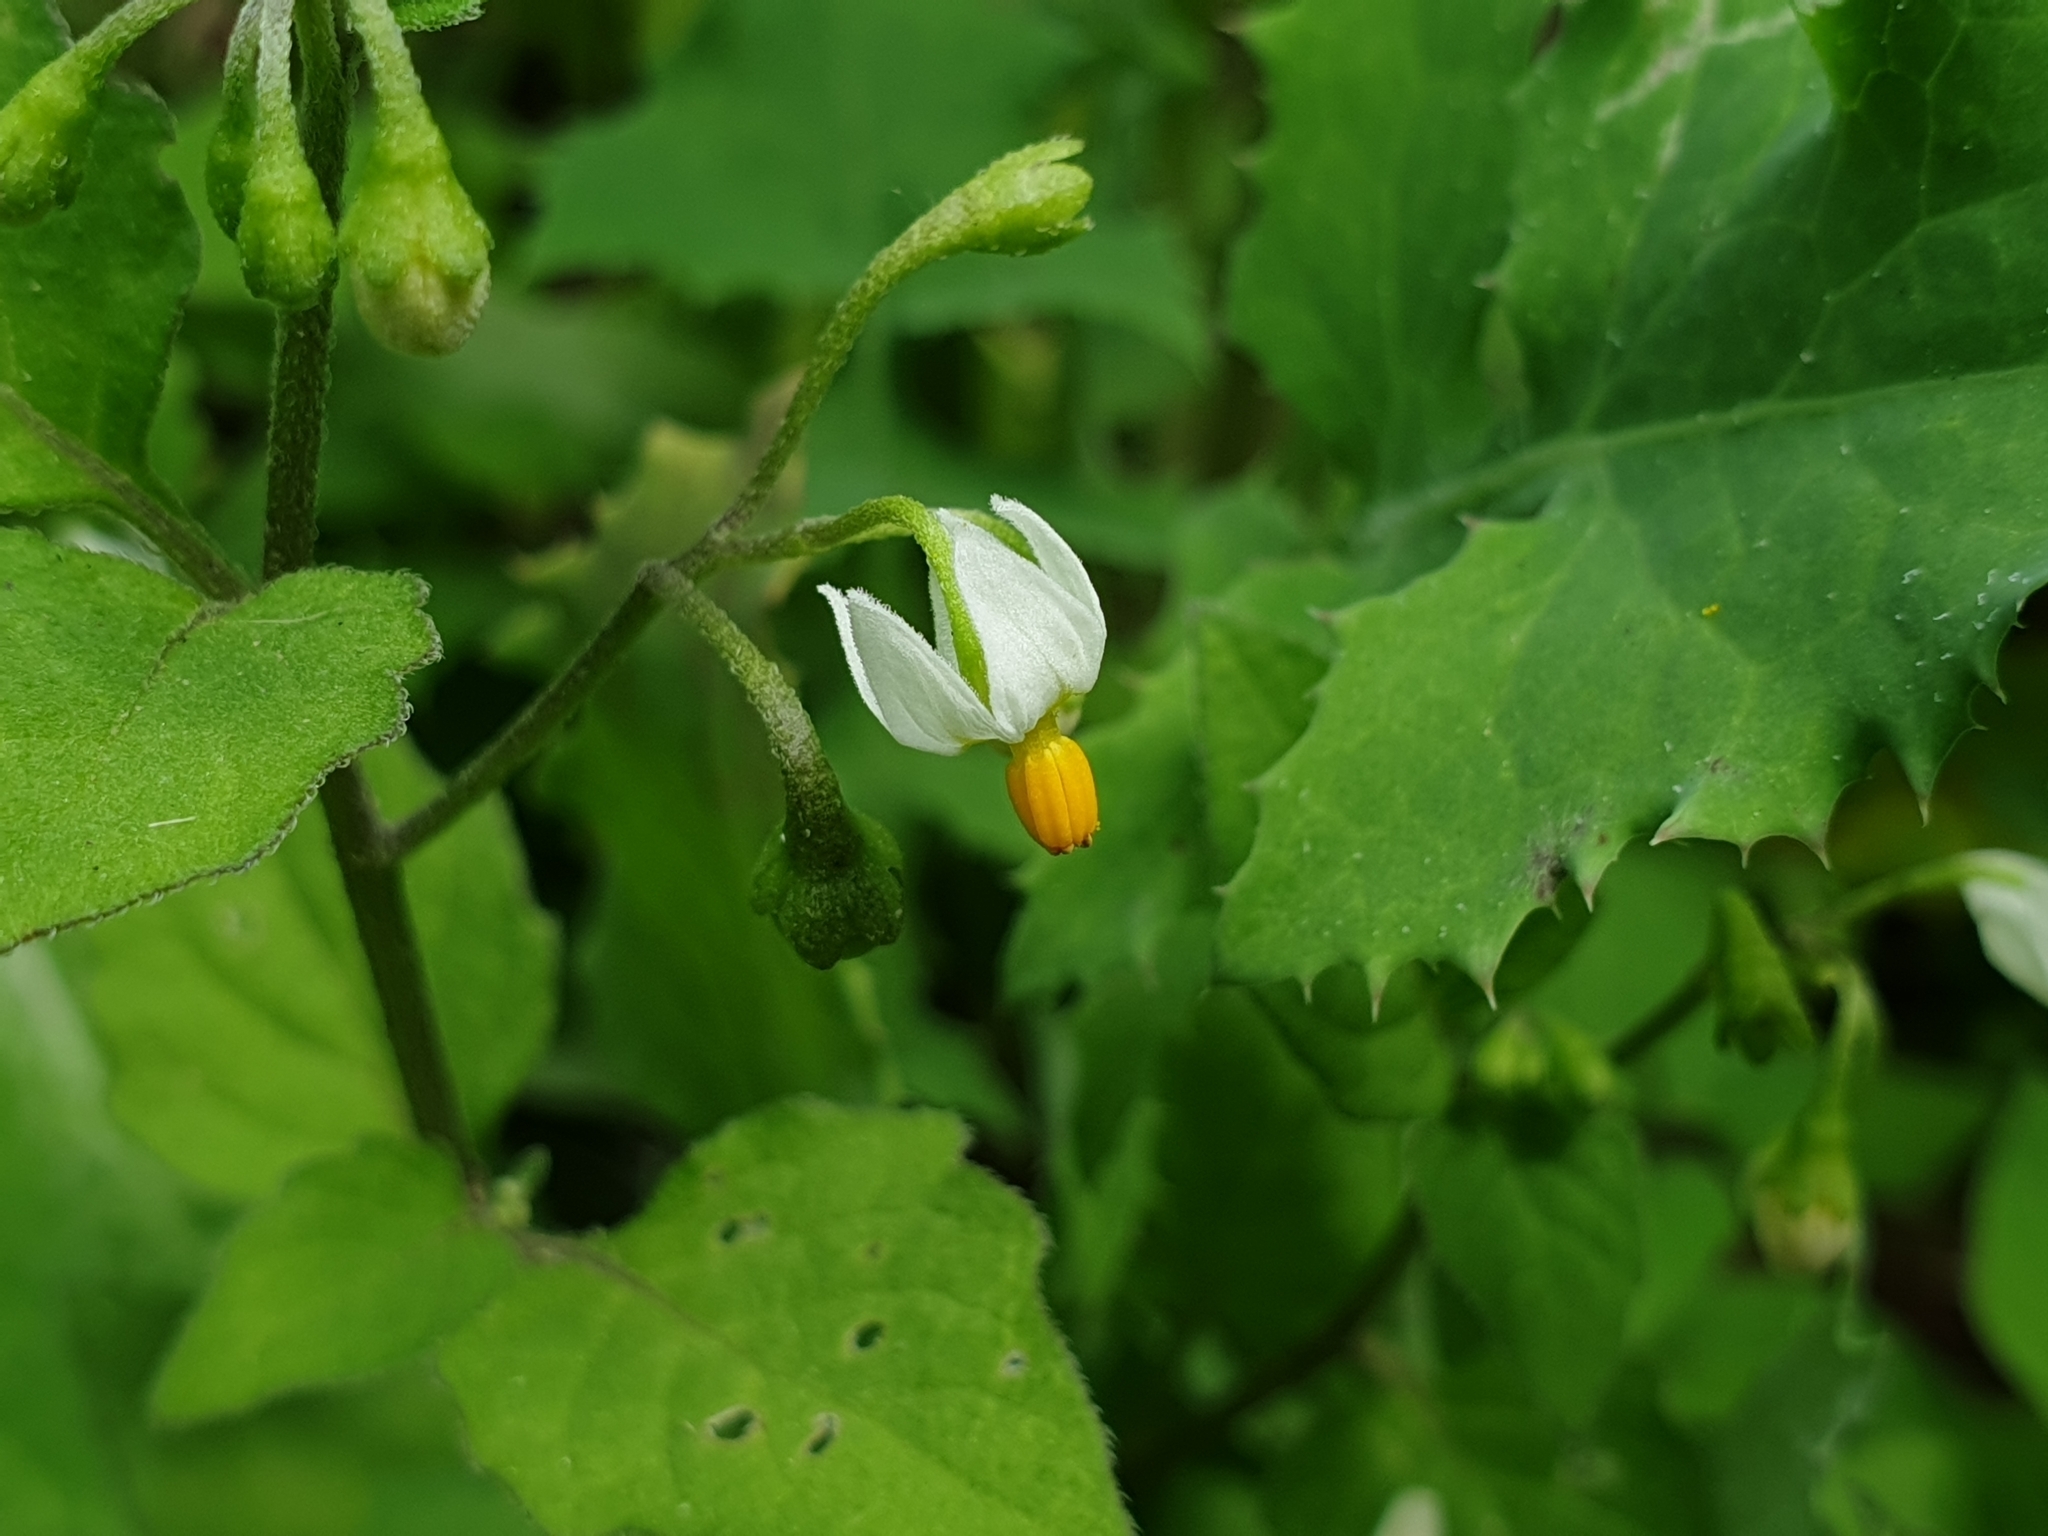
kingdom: Plantae
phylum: Tracheophyta
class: Magnoliopsida
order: Solanales
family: Solanaceae
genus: Solanum
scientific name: Solanum nigrum
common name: Black nightshade
